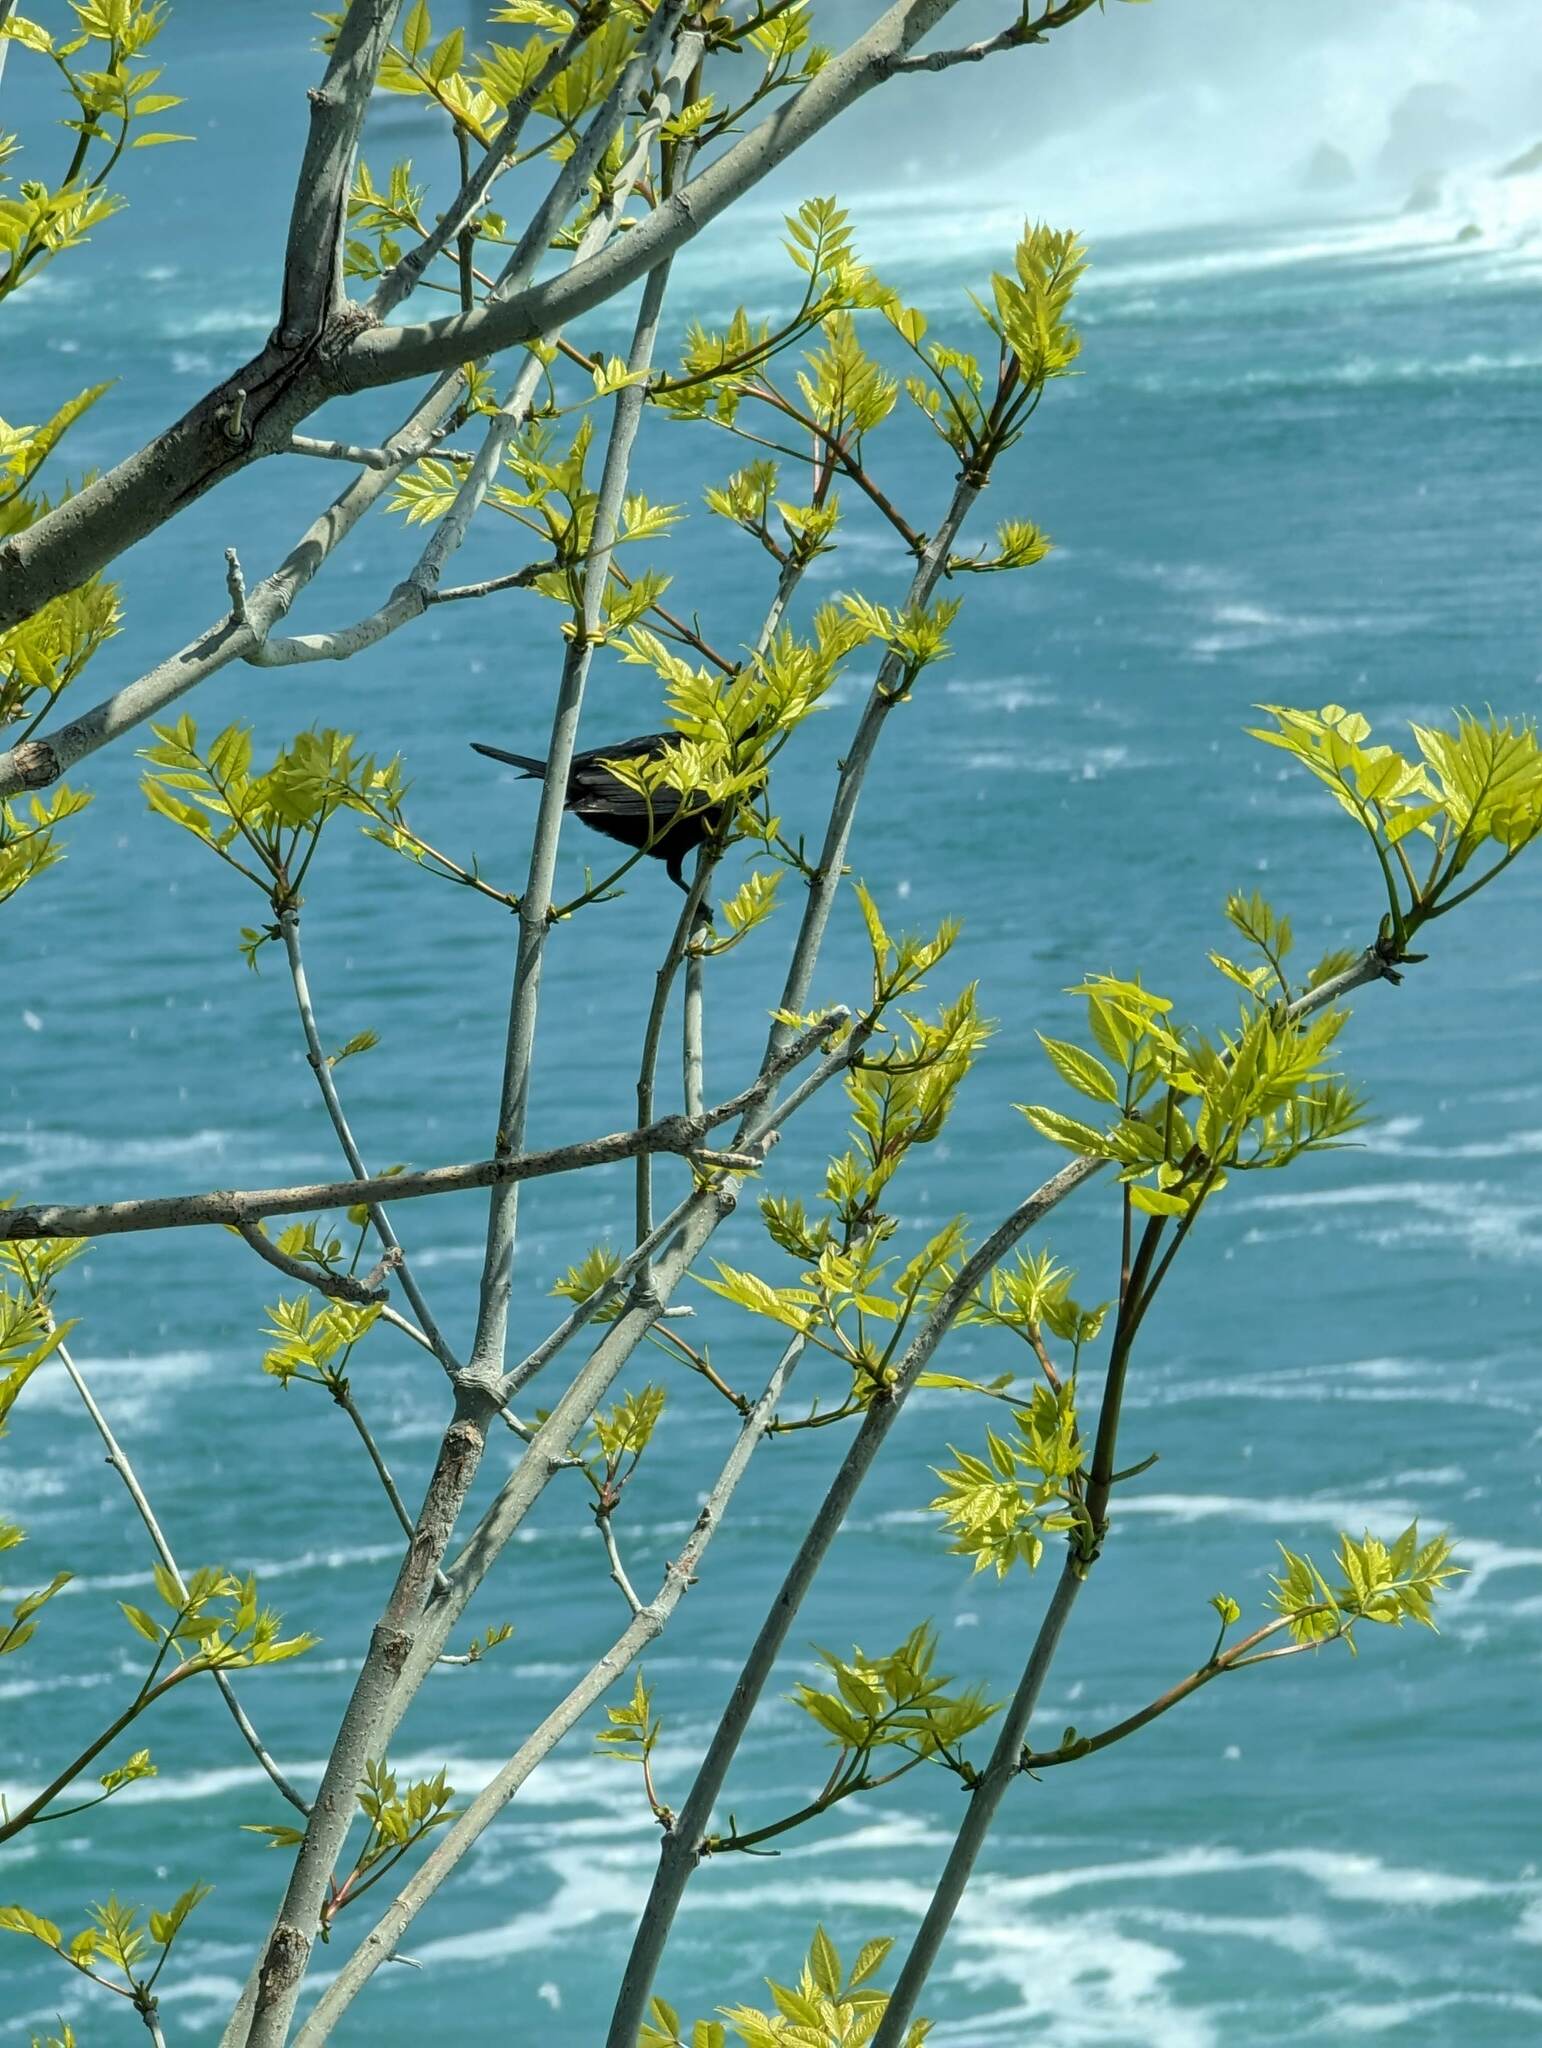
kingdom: Animalia
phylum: Chordata
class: Aves
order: Passeriformes
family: Icteridae
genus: Agelaius
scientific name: Agelaius phoeniceus
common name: Red-winged blackbird
